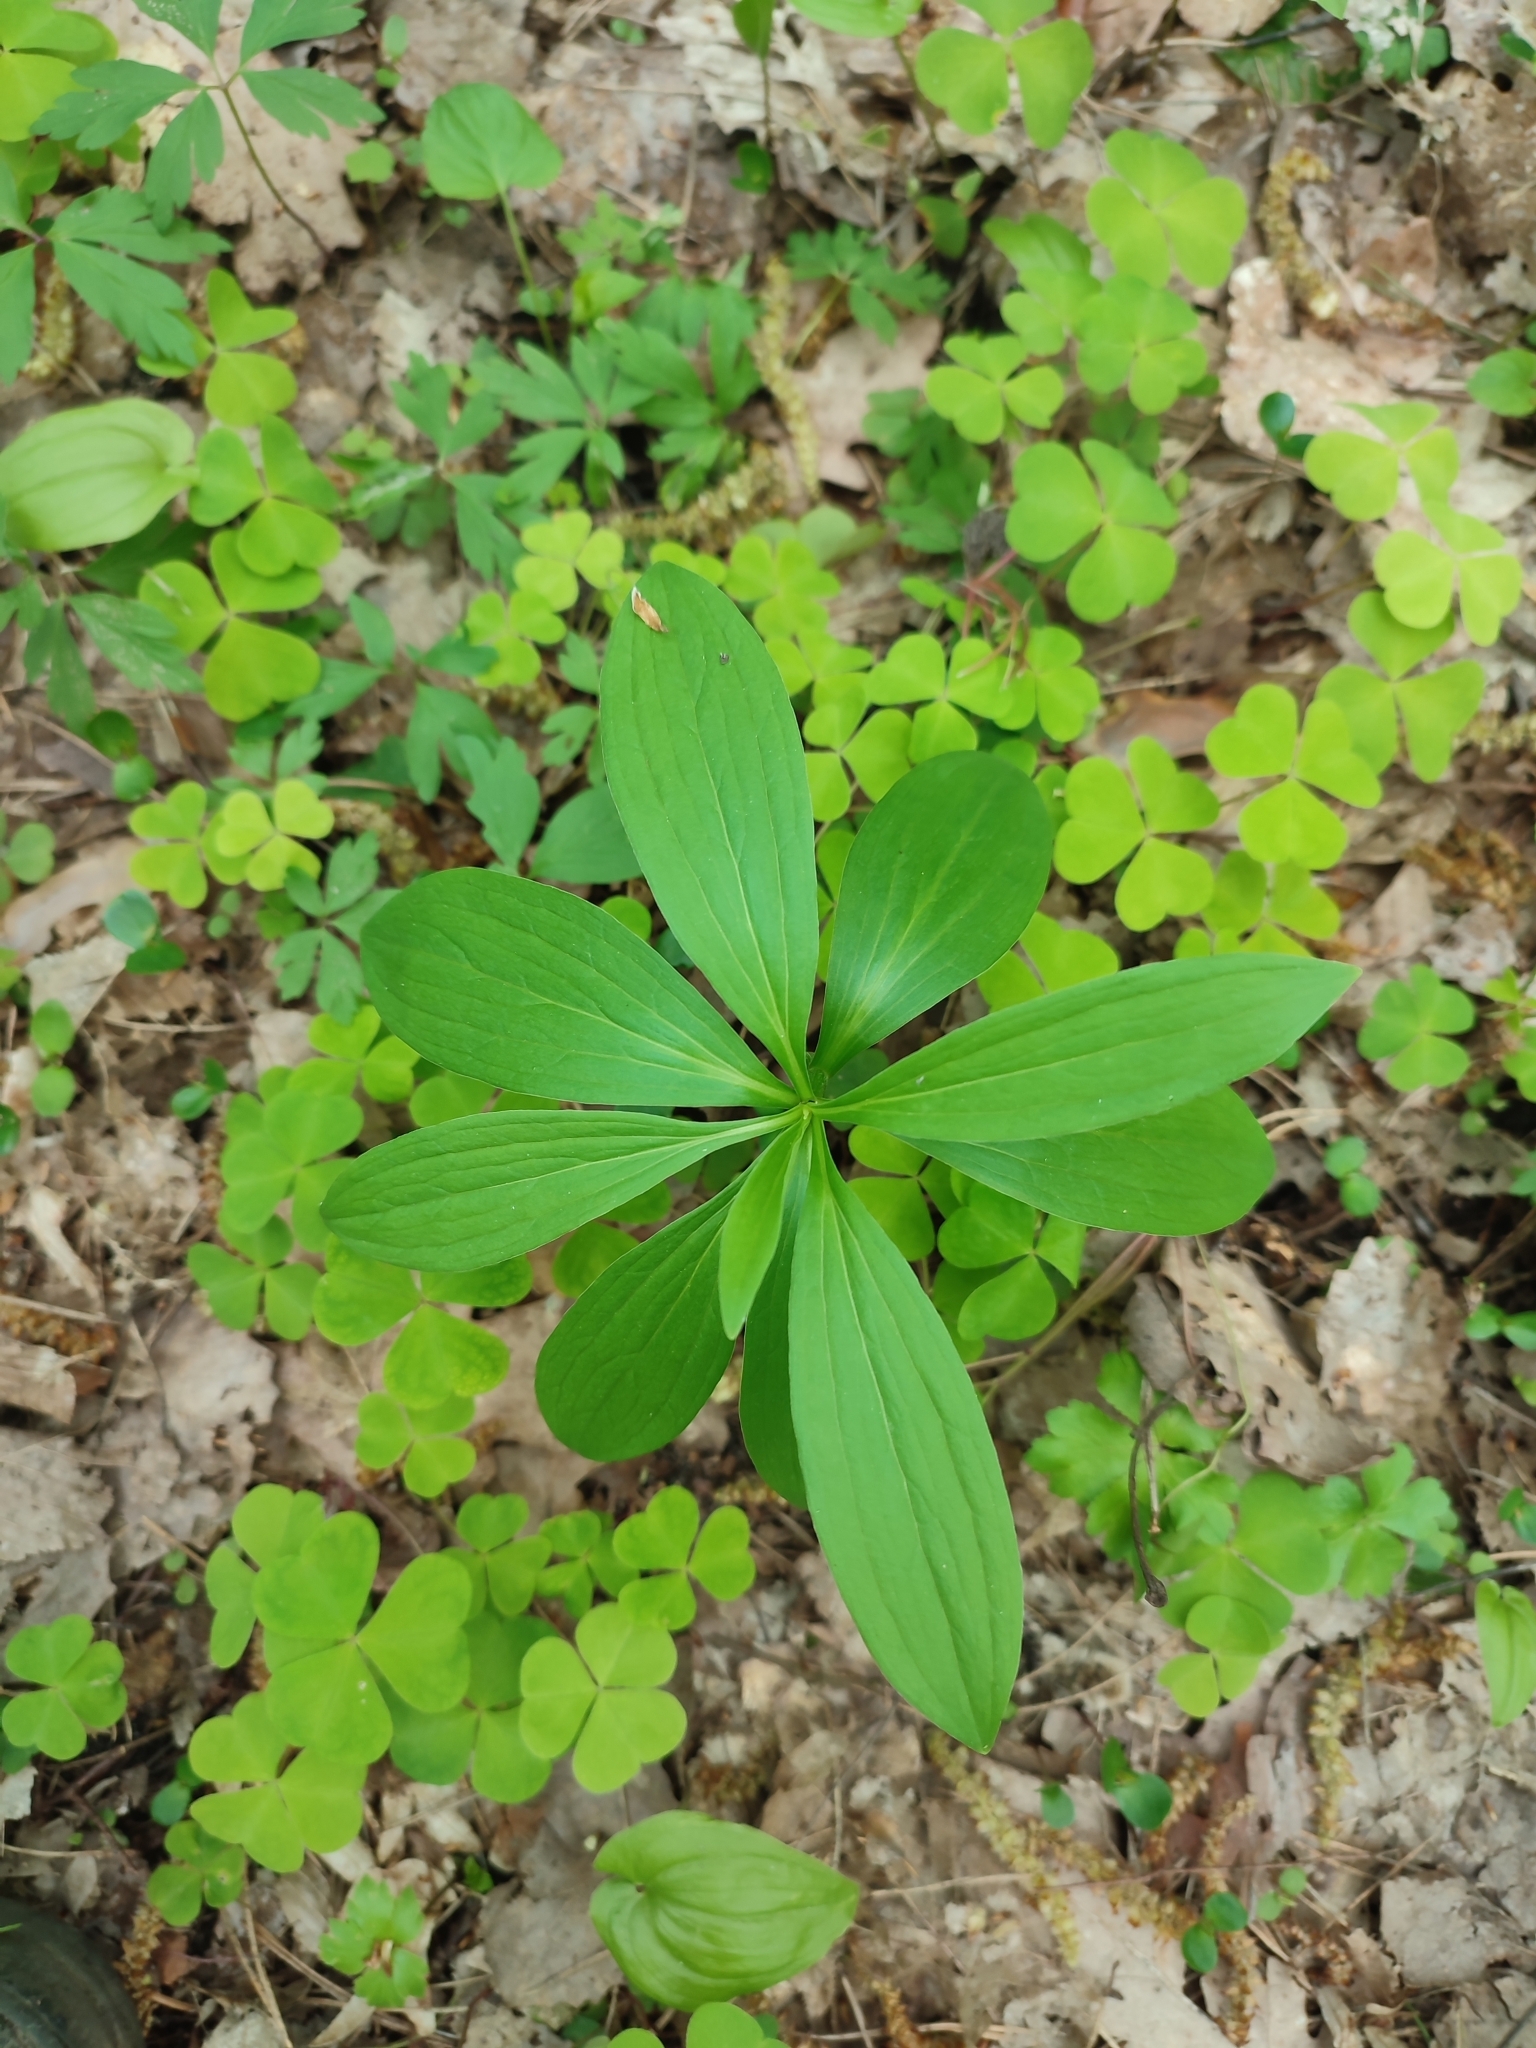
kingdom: Plantae
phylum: Tracheophyta
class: Liliopsida
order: Liliales
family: Liliaceae
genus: Lilium
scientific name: Lilium martagon
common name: Martagon lily
